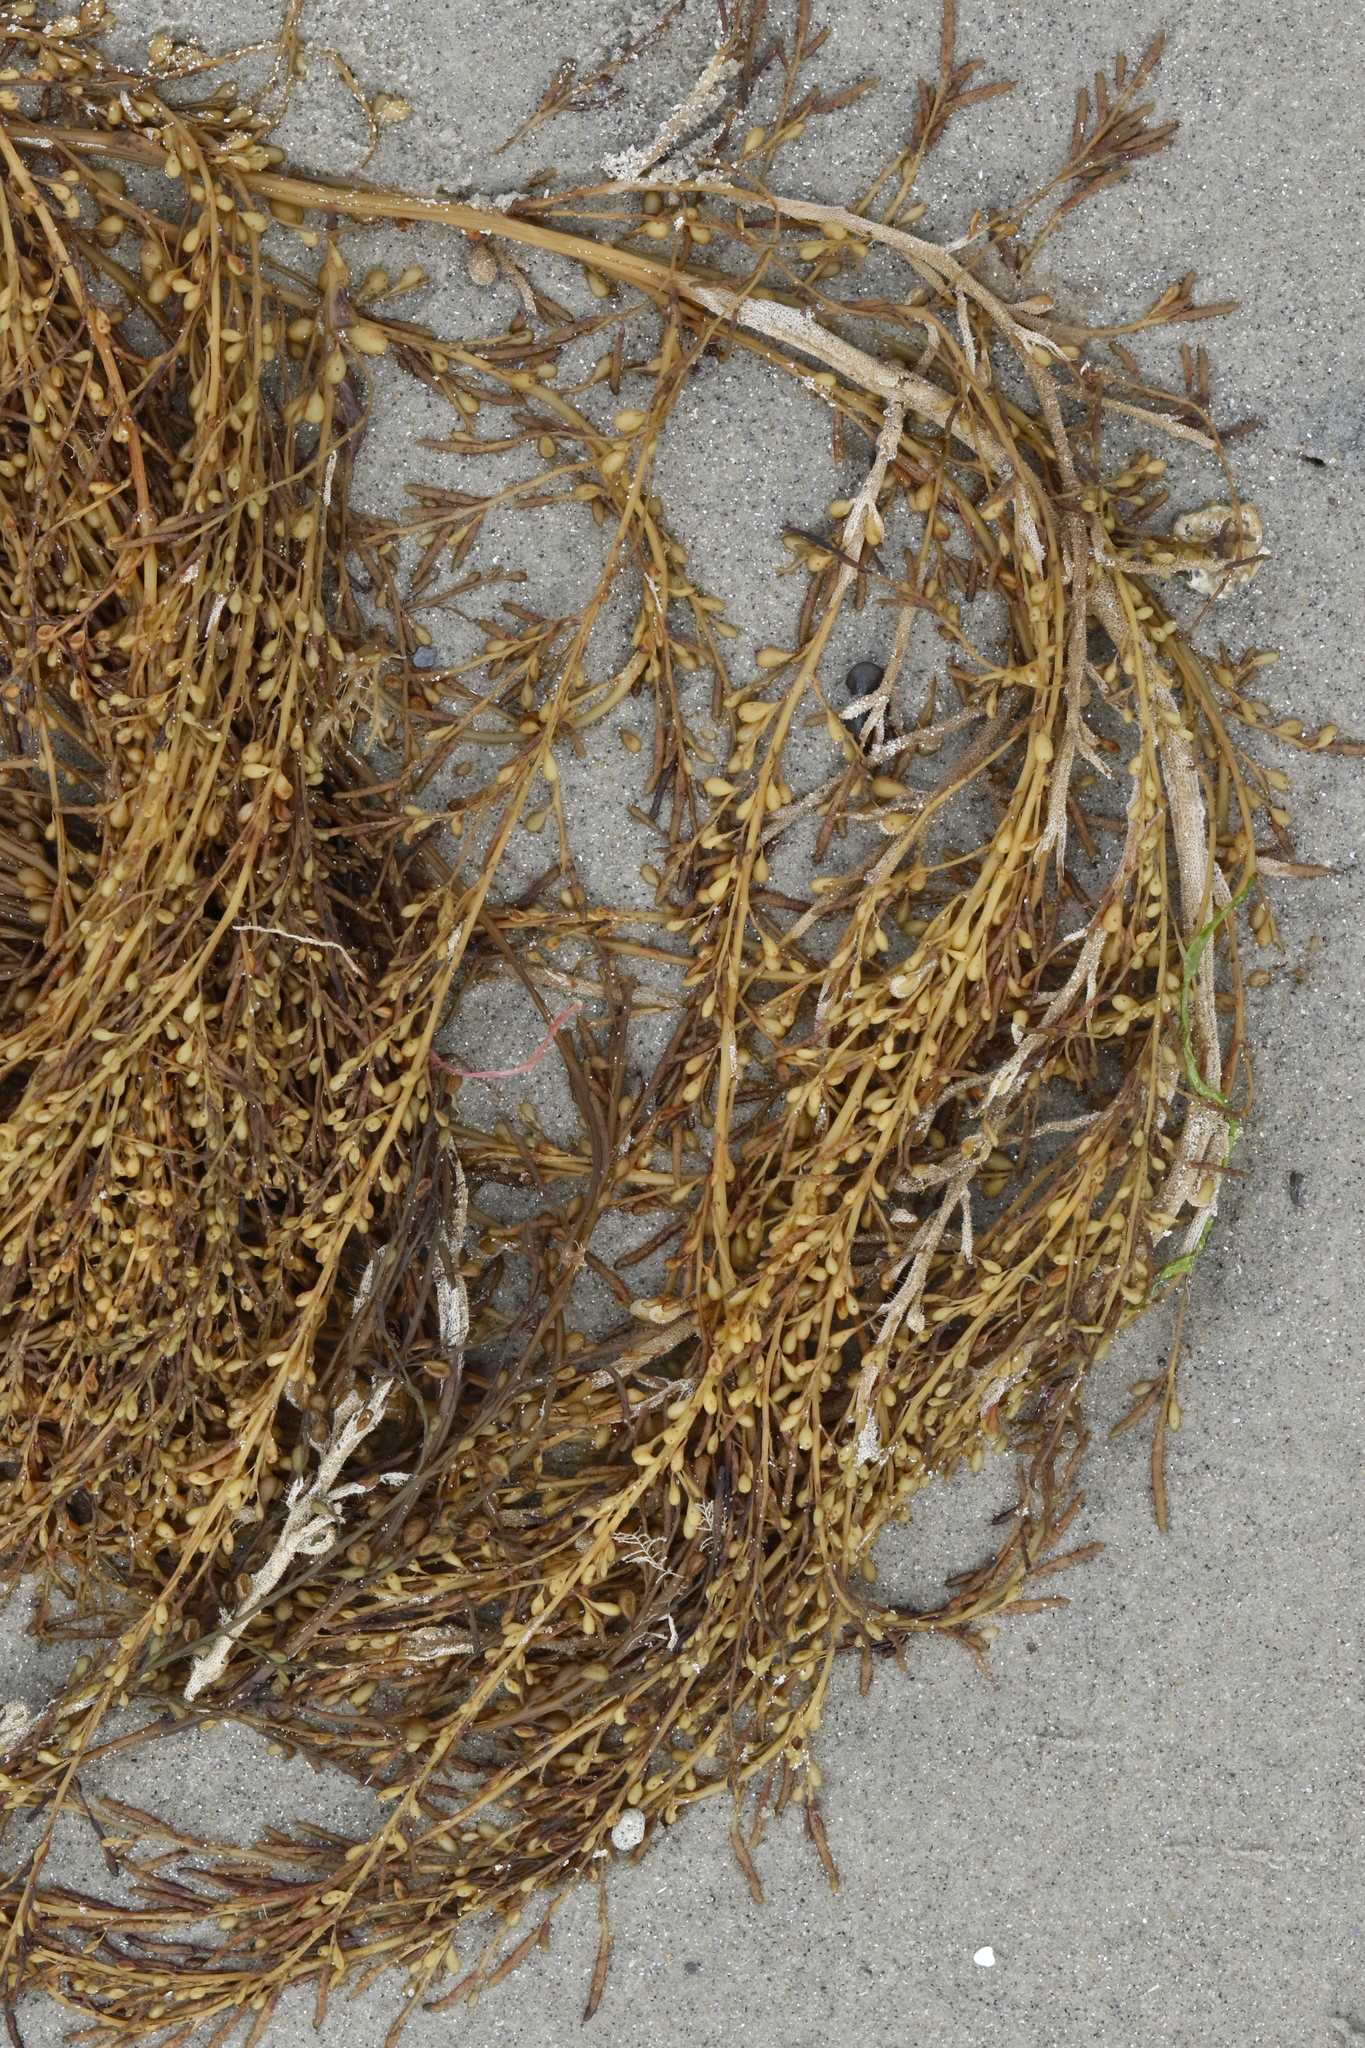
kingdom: Chromista
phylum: Ochrophyta
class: Phaeophyceae
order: Fucales
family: Sargassaceae
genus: Sargassum
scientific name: Sargassum muticum
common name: Japweed
